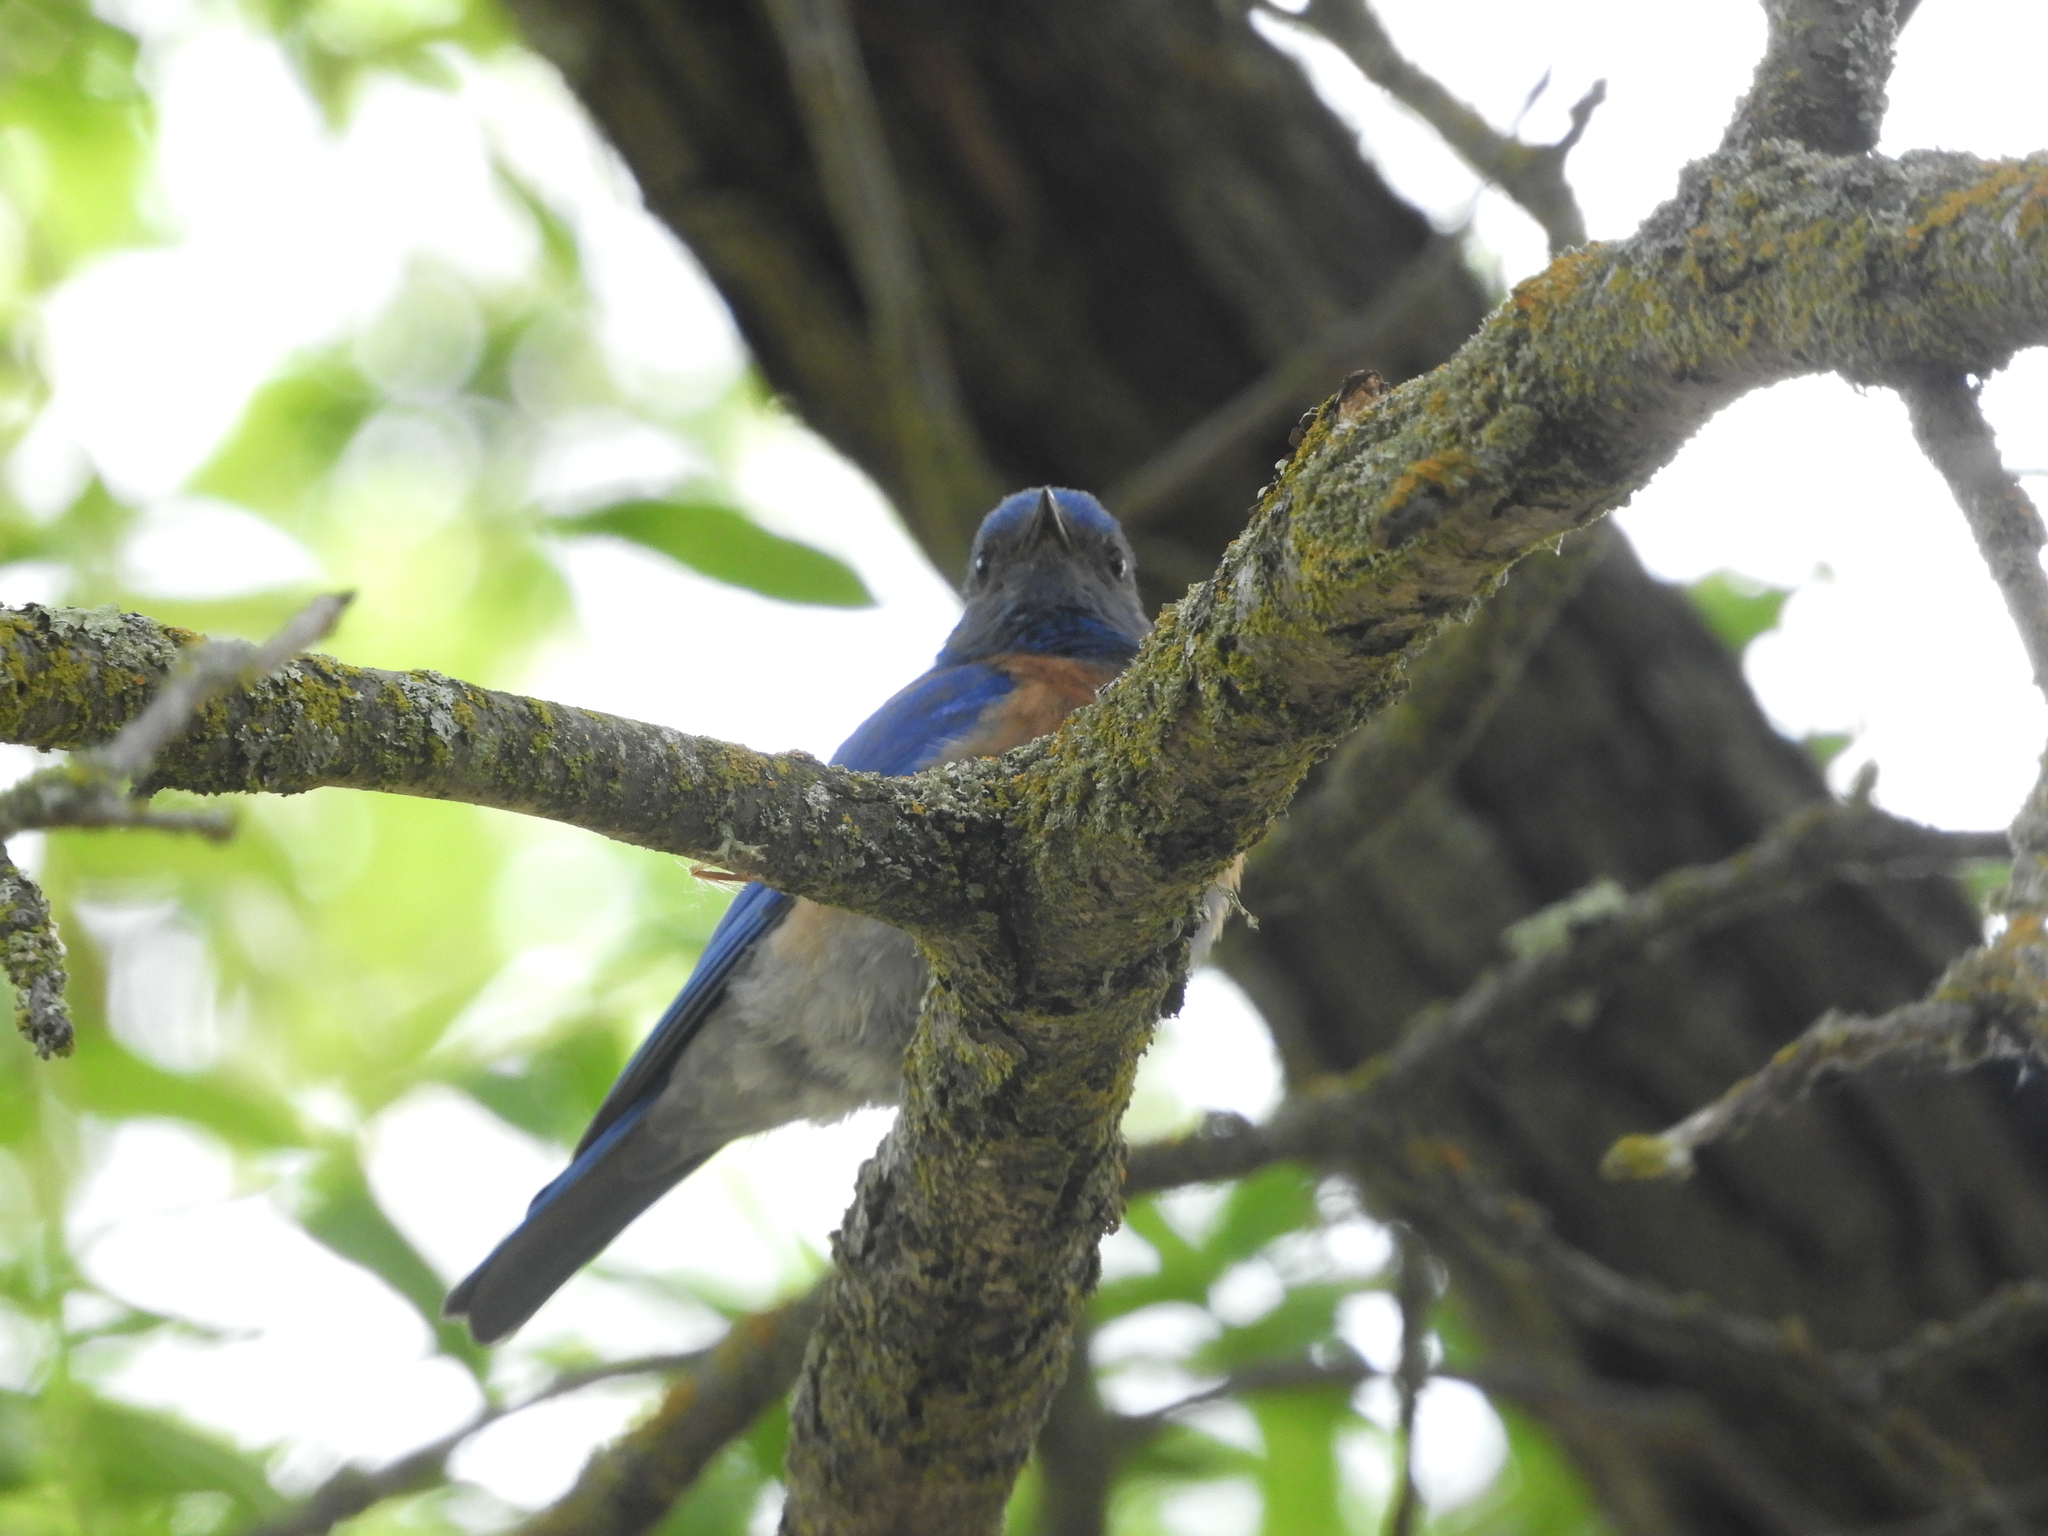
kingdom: Animalia
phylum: Chordata
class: Aves
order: Passeriformes
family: Turdidae
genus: Sialia
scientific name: Sialia mexicana
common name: Western bluebird
